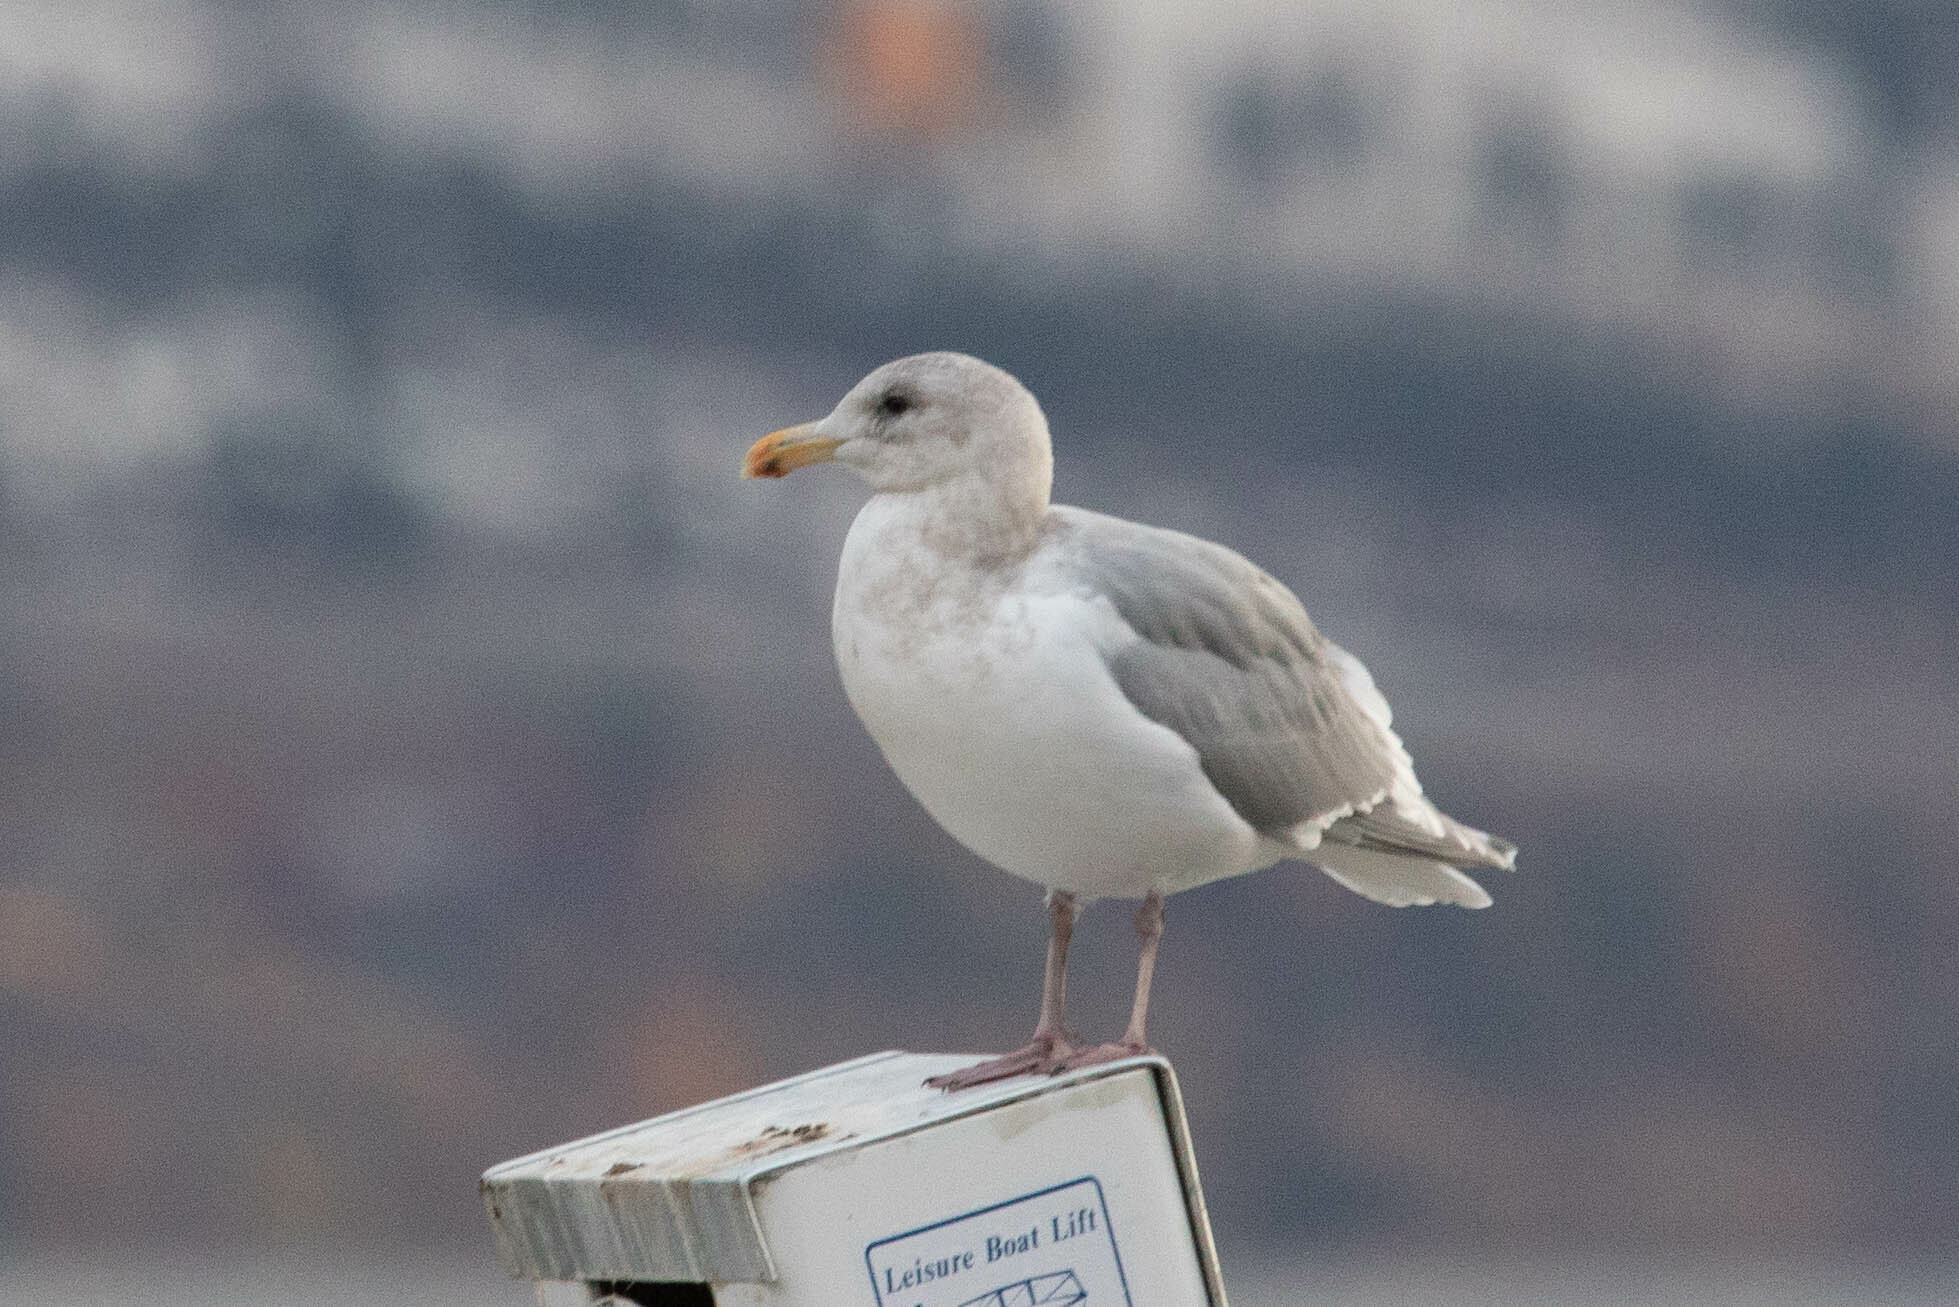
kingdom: Animalia
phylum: Chordata
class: Aves
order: Charadriiformes
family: Laridae
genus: Larus
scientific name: Larus glaucescens
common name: Glaucous-winged gull
